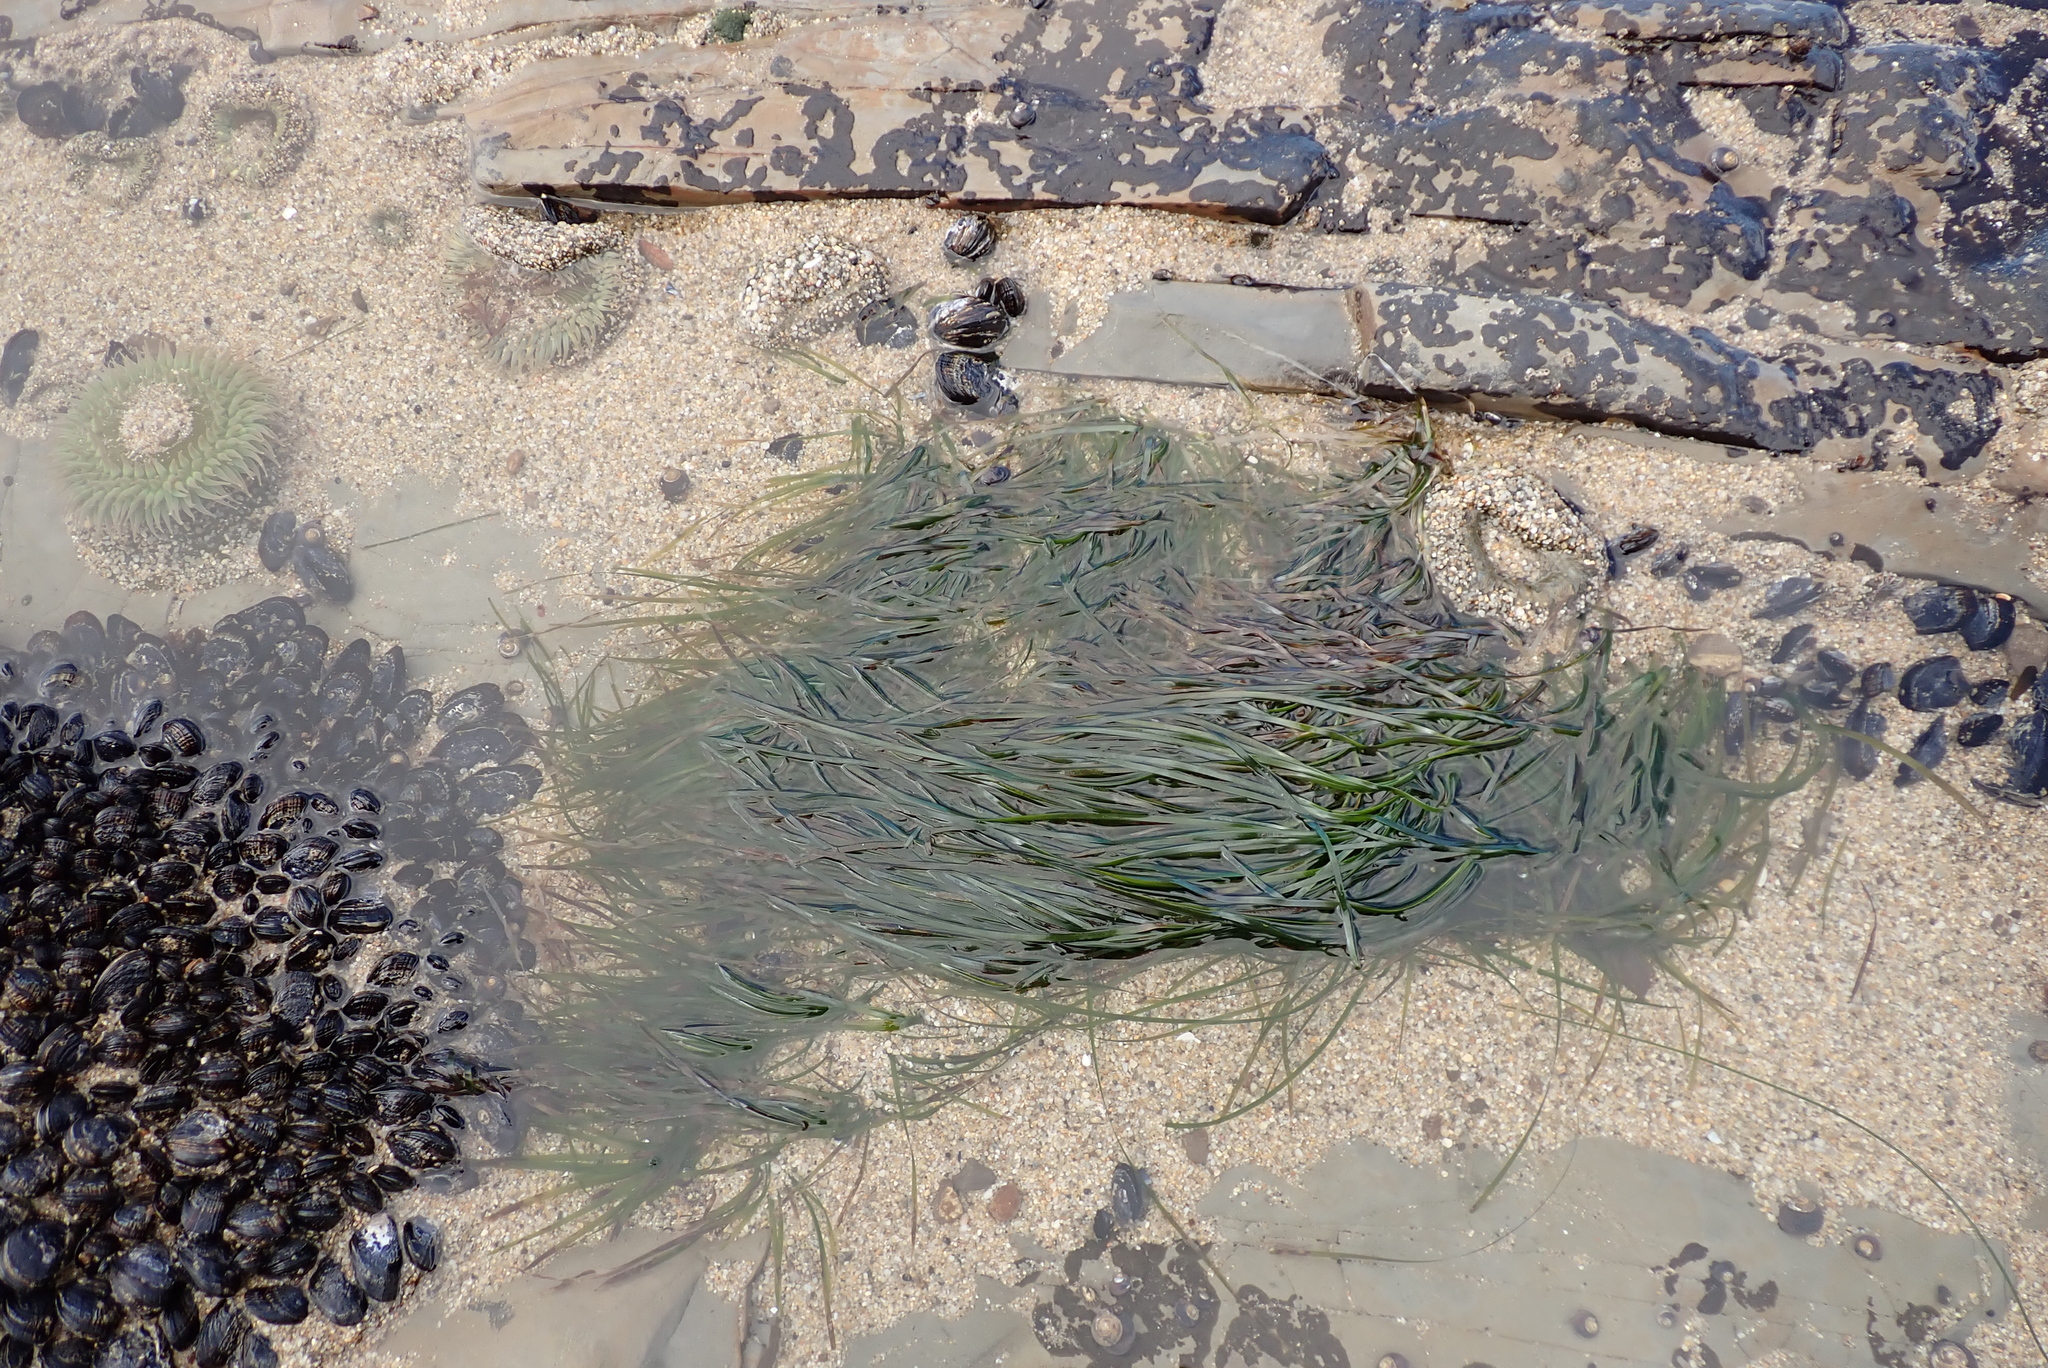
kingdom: Plantae
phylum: Tracheophyta
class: Liliopsida
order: Alismatales
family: Zosteraceae
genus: Phyllospadix
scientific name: Phyllospadix torreyi
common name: Surfgrass
